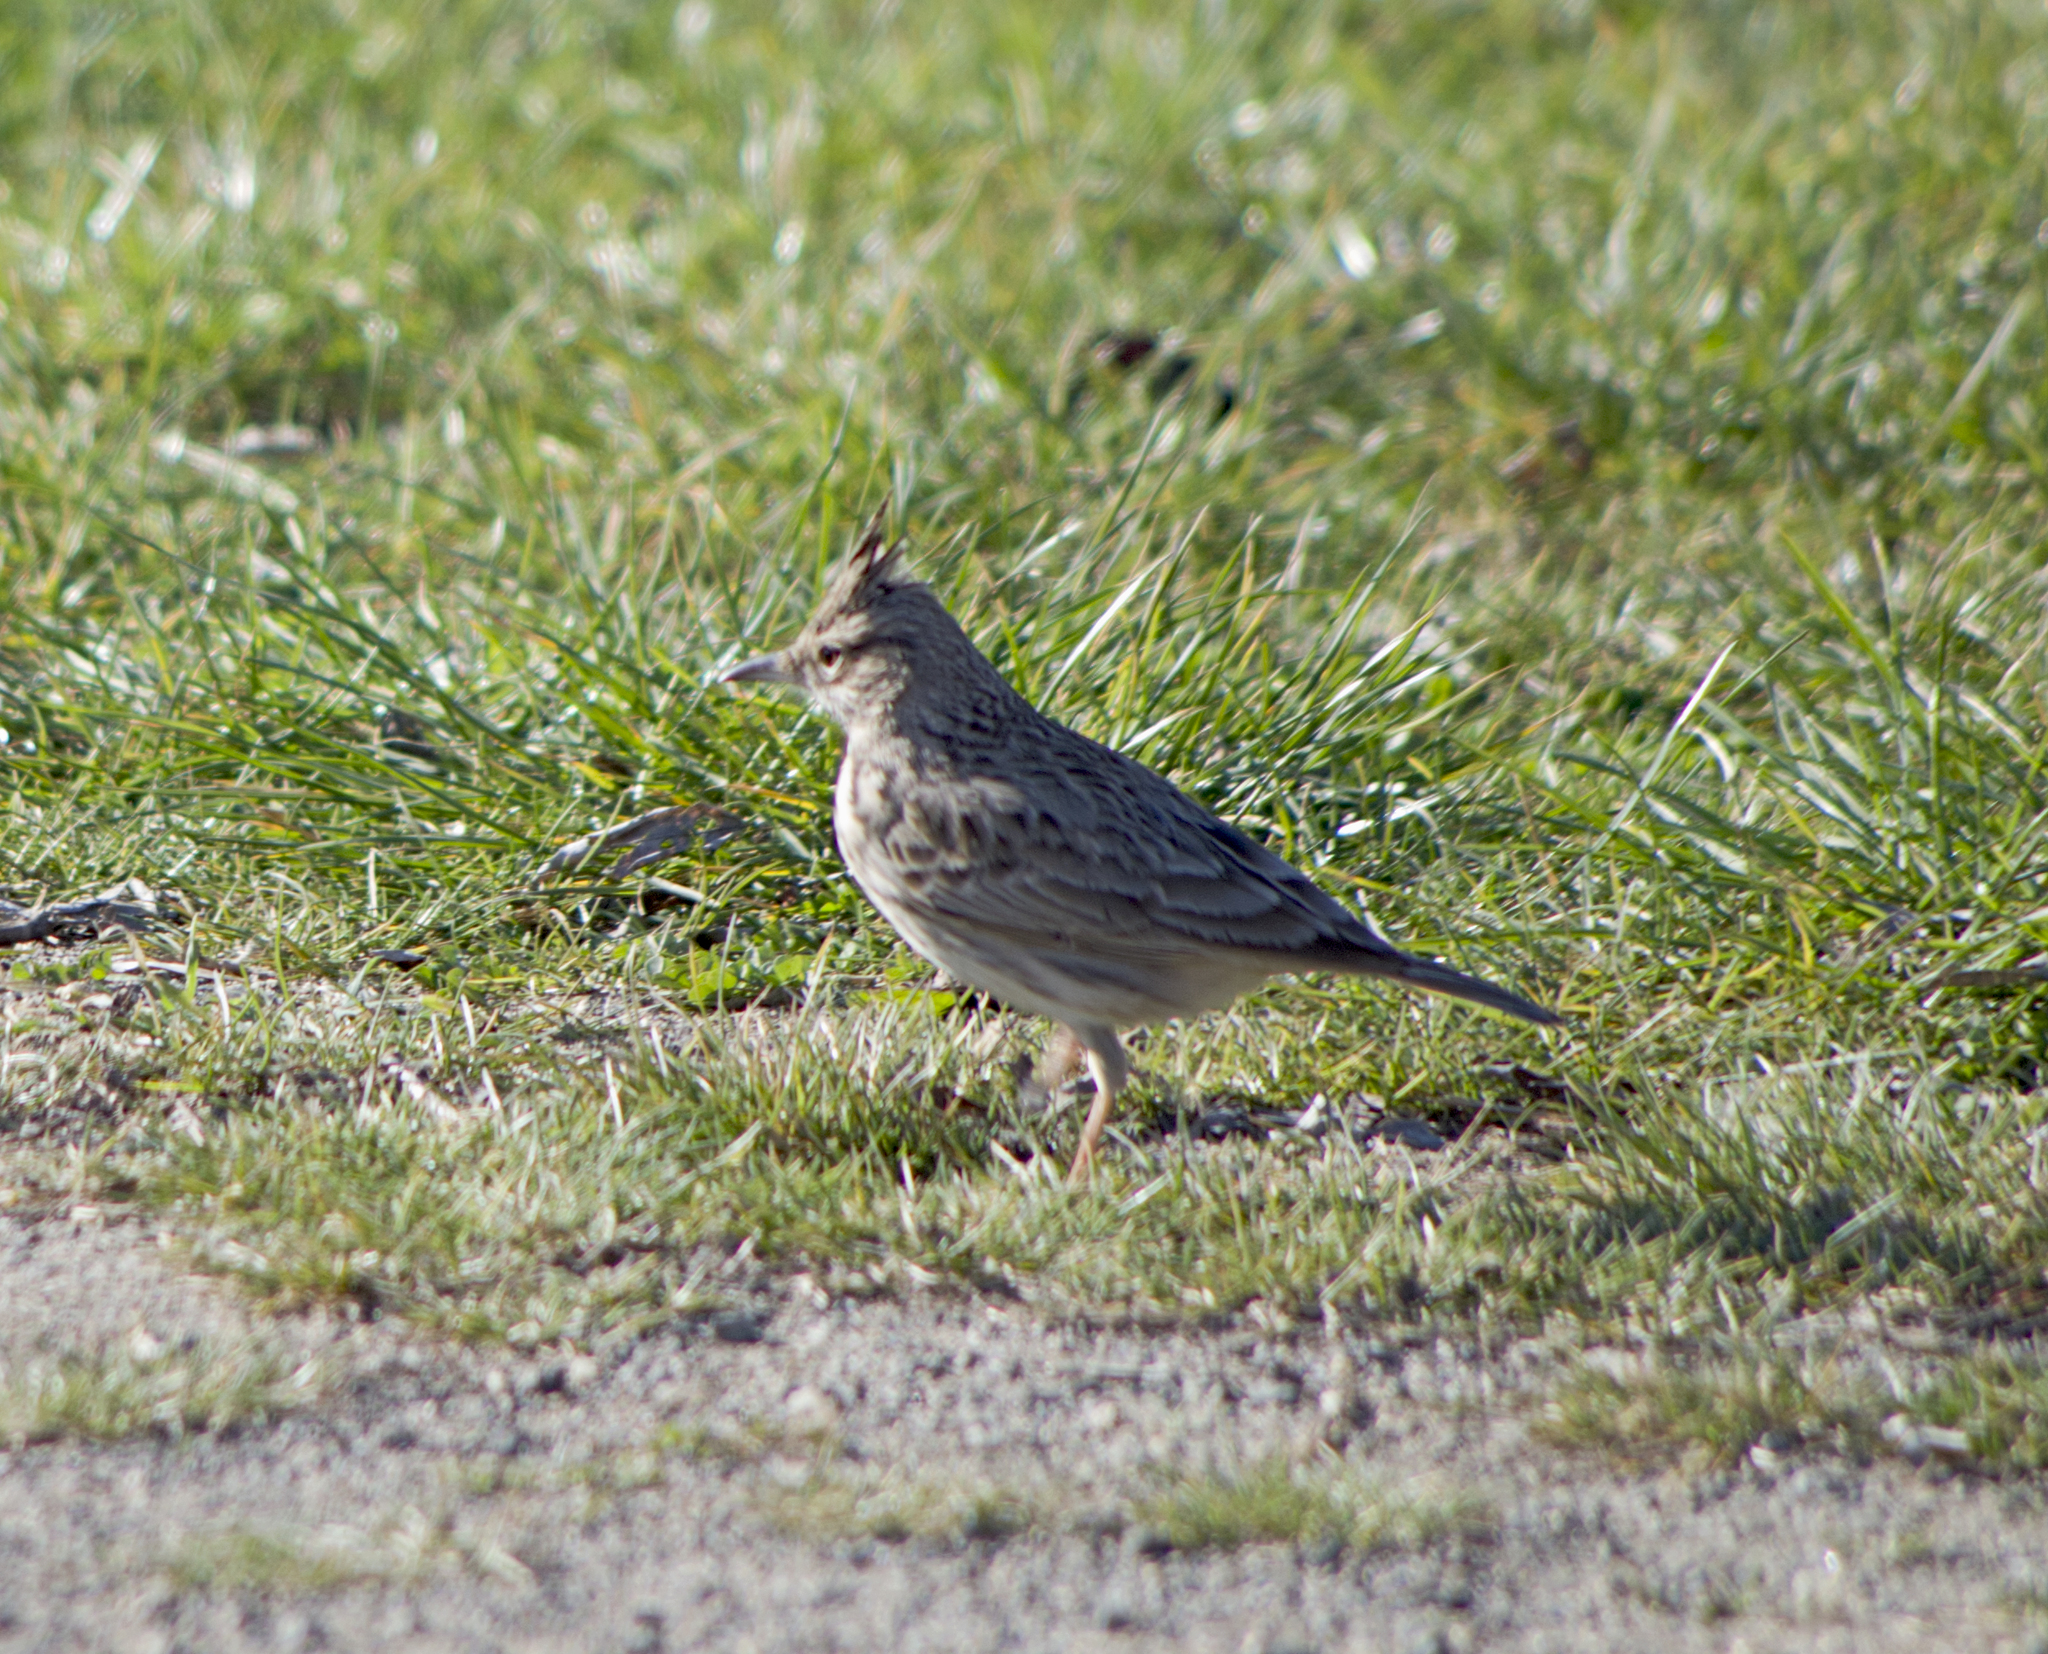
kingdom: Animalia
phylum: Chordata
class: Aves
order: Passeriformes
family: Alaudidae
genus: Galerida
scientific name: Galerida cristata
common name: Crested lark
